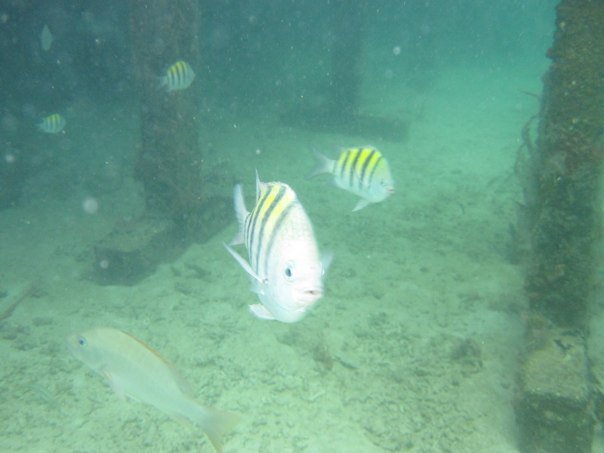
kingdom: Animalia
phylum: Chordata
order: Perciformes
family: Pomacentridae
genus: Abudefduf
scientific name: Abudefduf saxatilis
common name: Sergeant major
